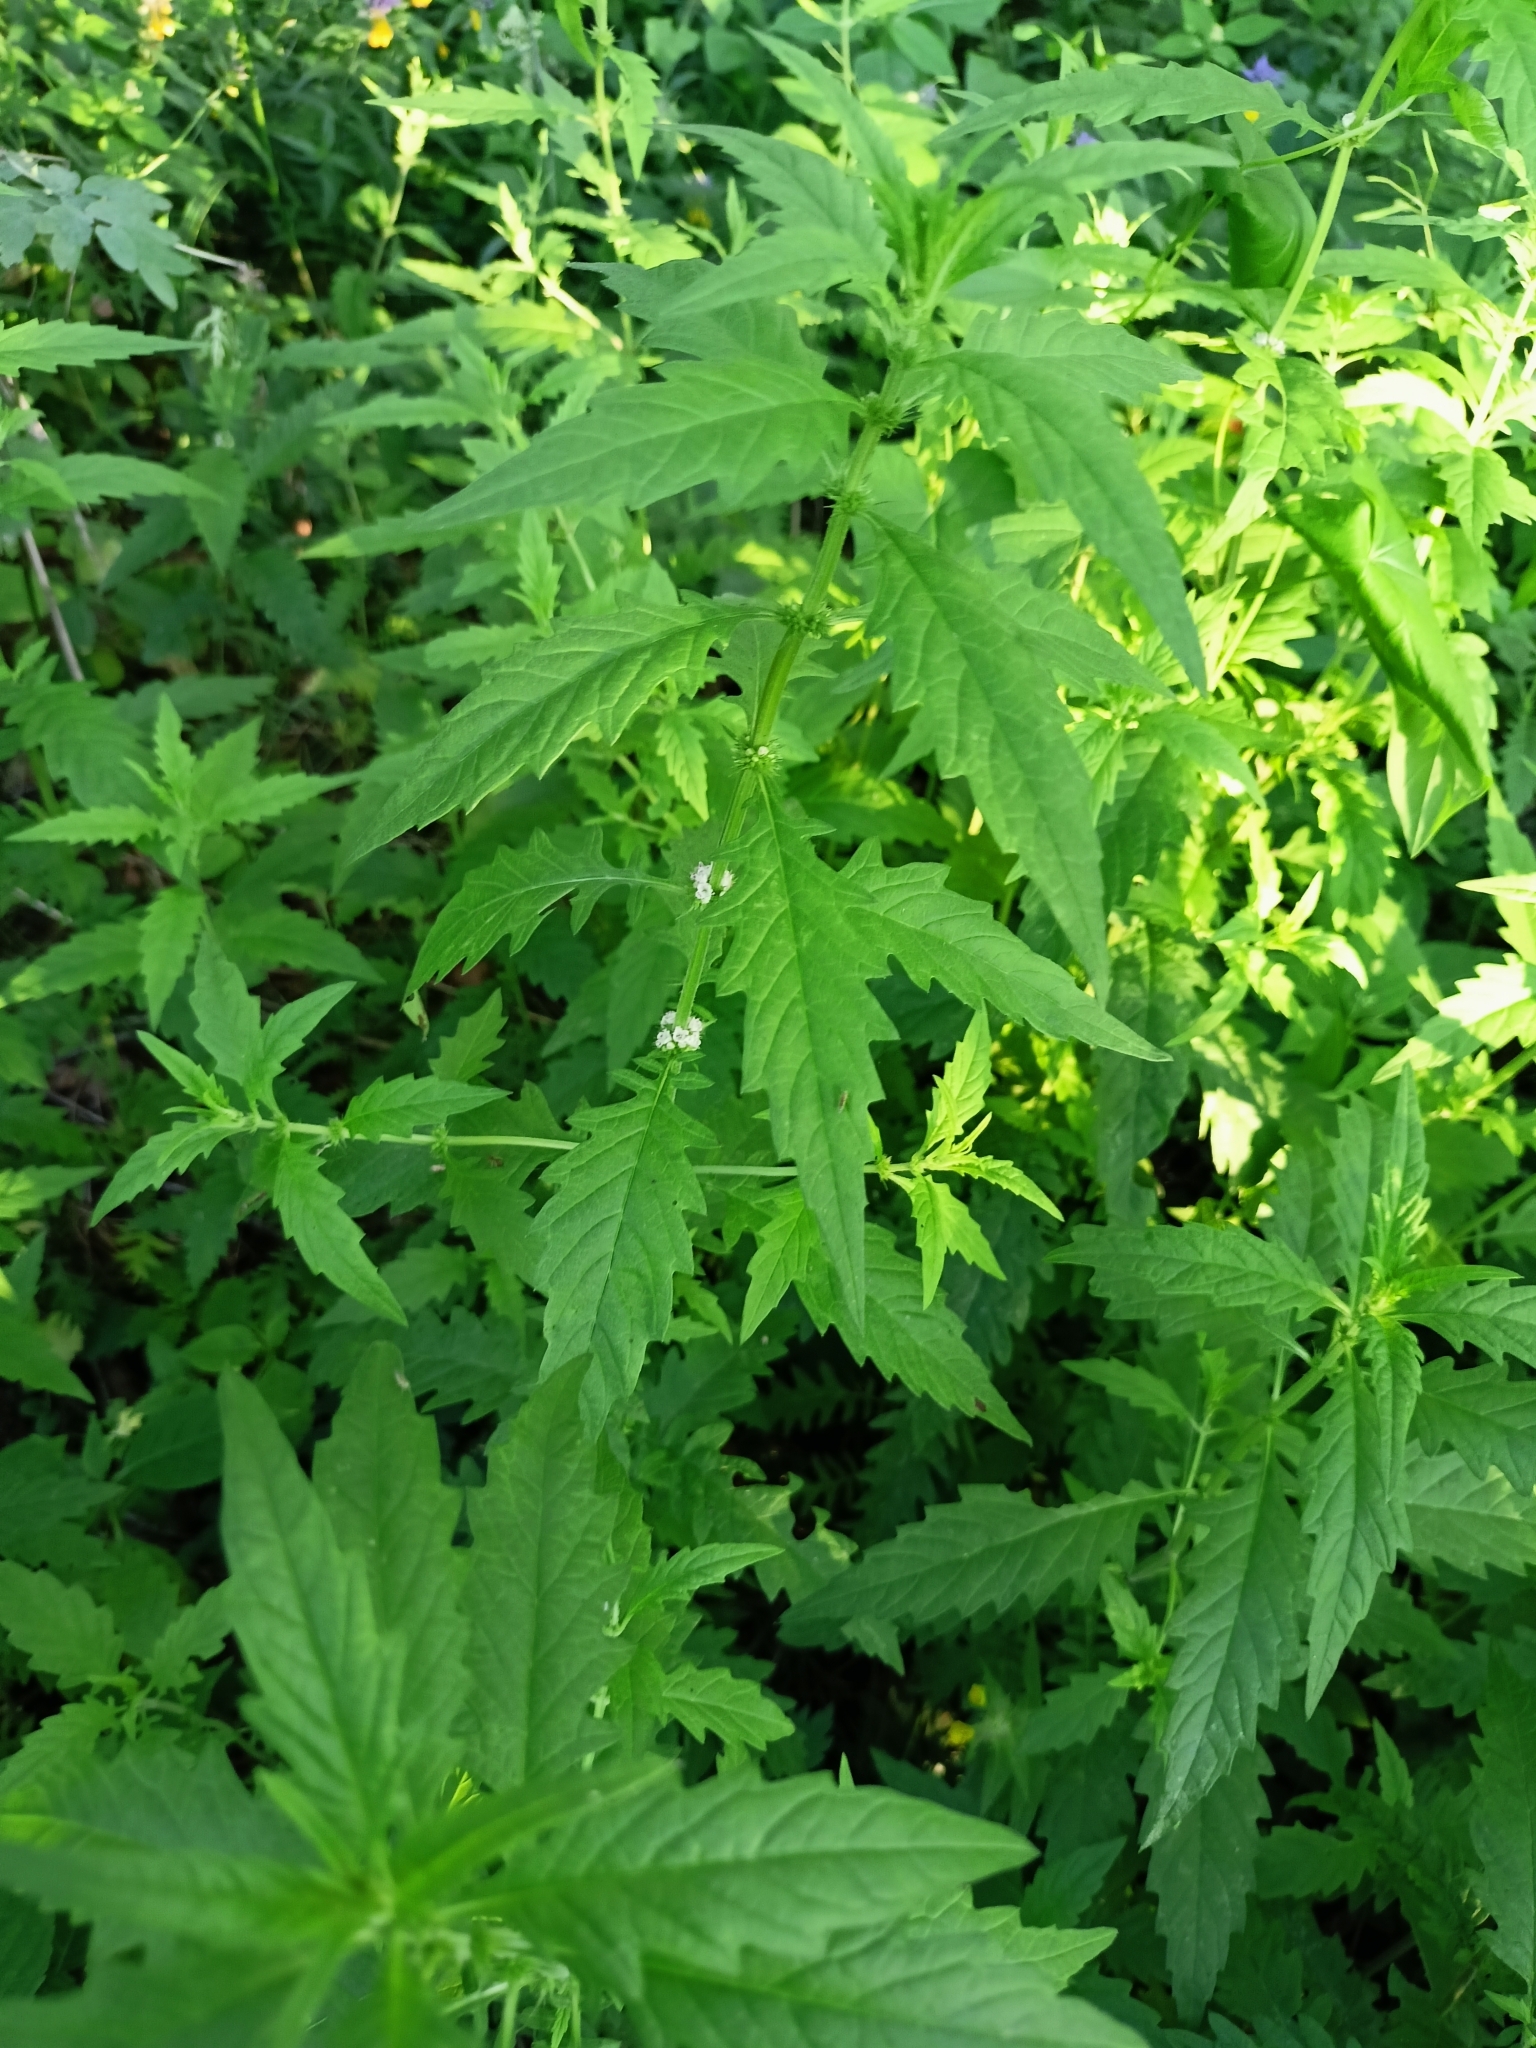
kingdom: Plantae
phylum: Tracheophyta
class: Magnoliopsida
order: Lamiales
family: Lamiaceae
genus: Lycopus
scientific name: Lycopus europaeus
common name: European bugleweed
